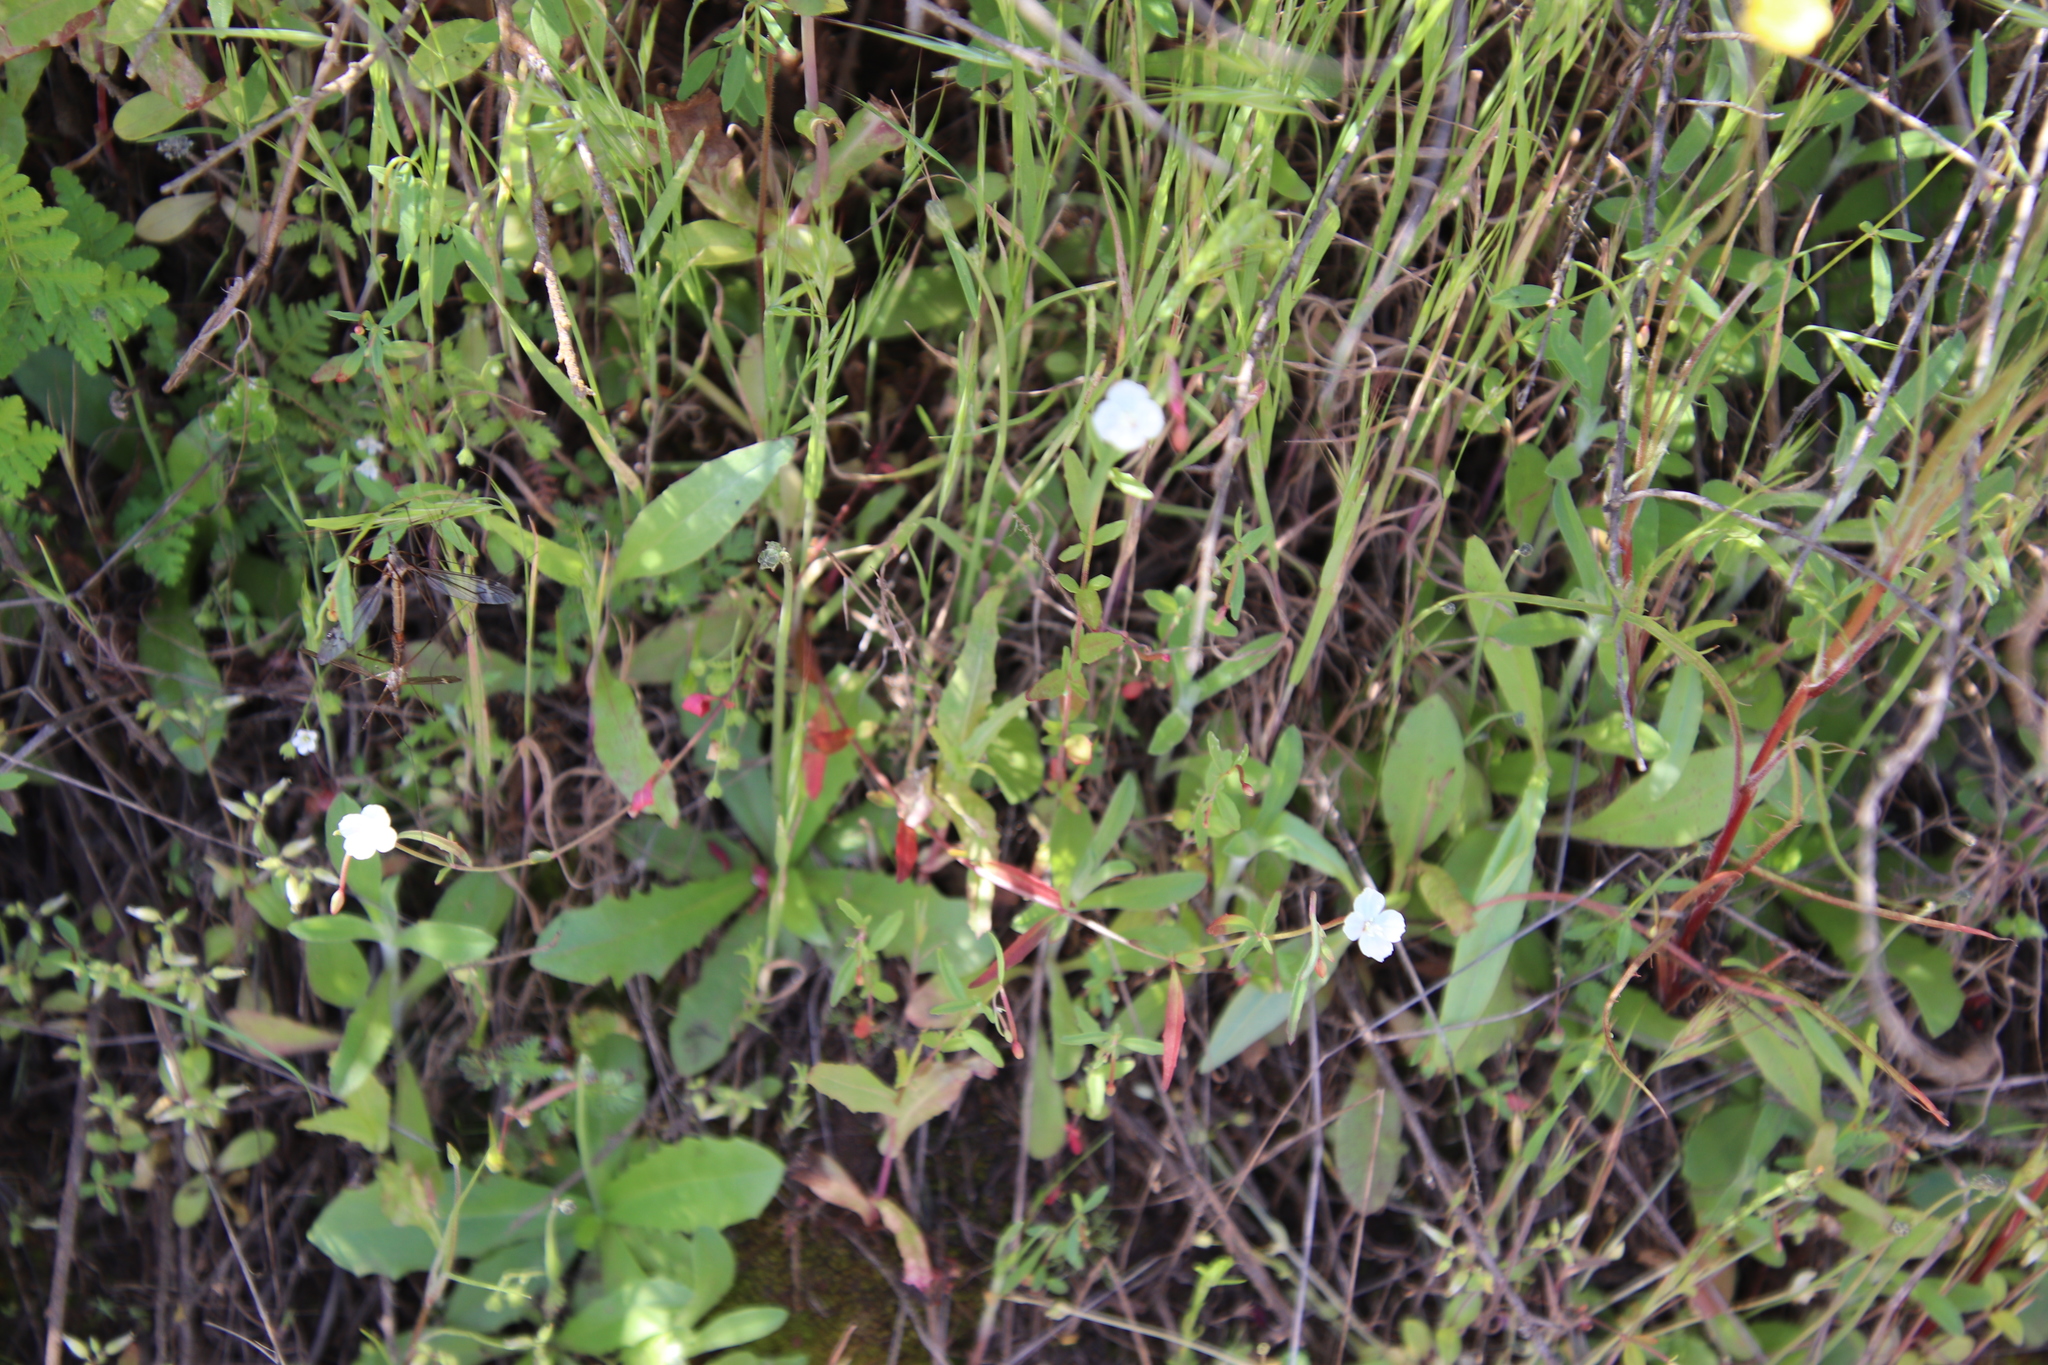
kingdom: Plantae
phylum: Tracheophyta
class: Magnoliopsida
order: Myrtales
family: Onagraceae
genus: Clarkia
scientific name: Clarkia epilobioides
